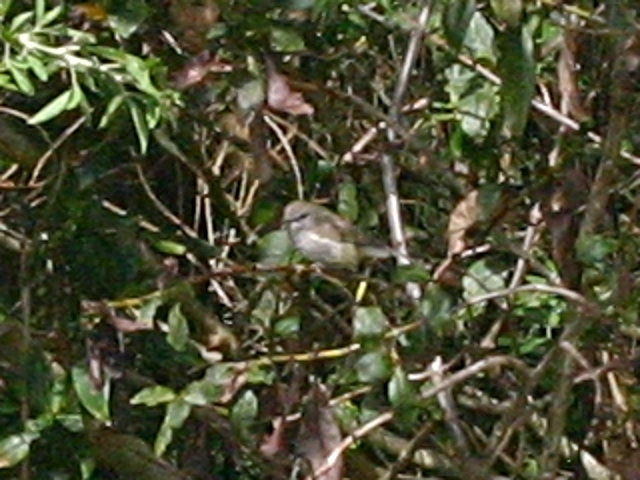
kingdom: Animalia
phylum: Chordata
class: Aves
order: Passeriformes
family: Acanthizidae
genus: Gerygone
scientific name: Gerygone igata
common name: Grey gerygone
